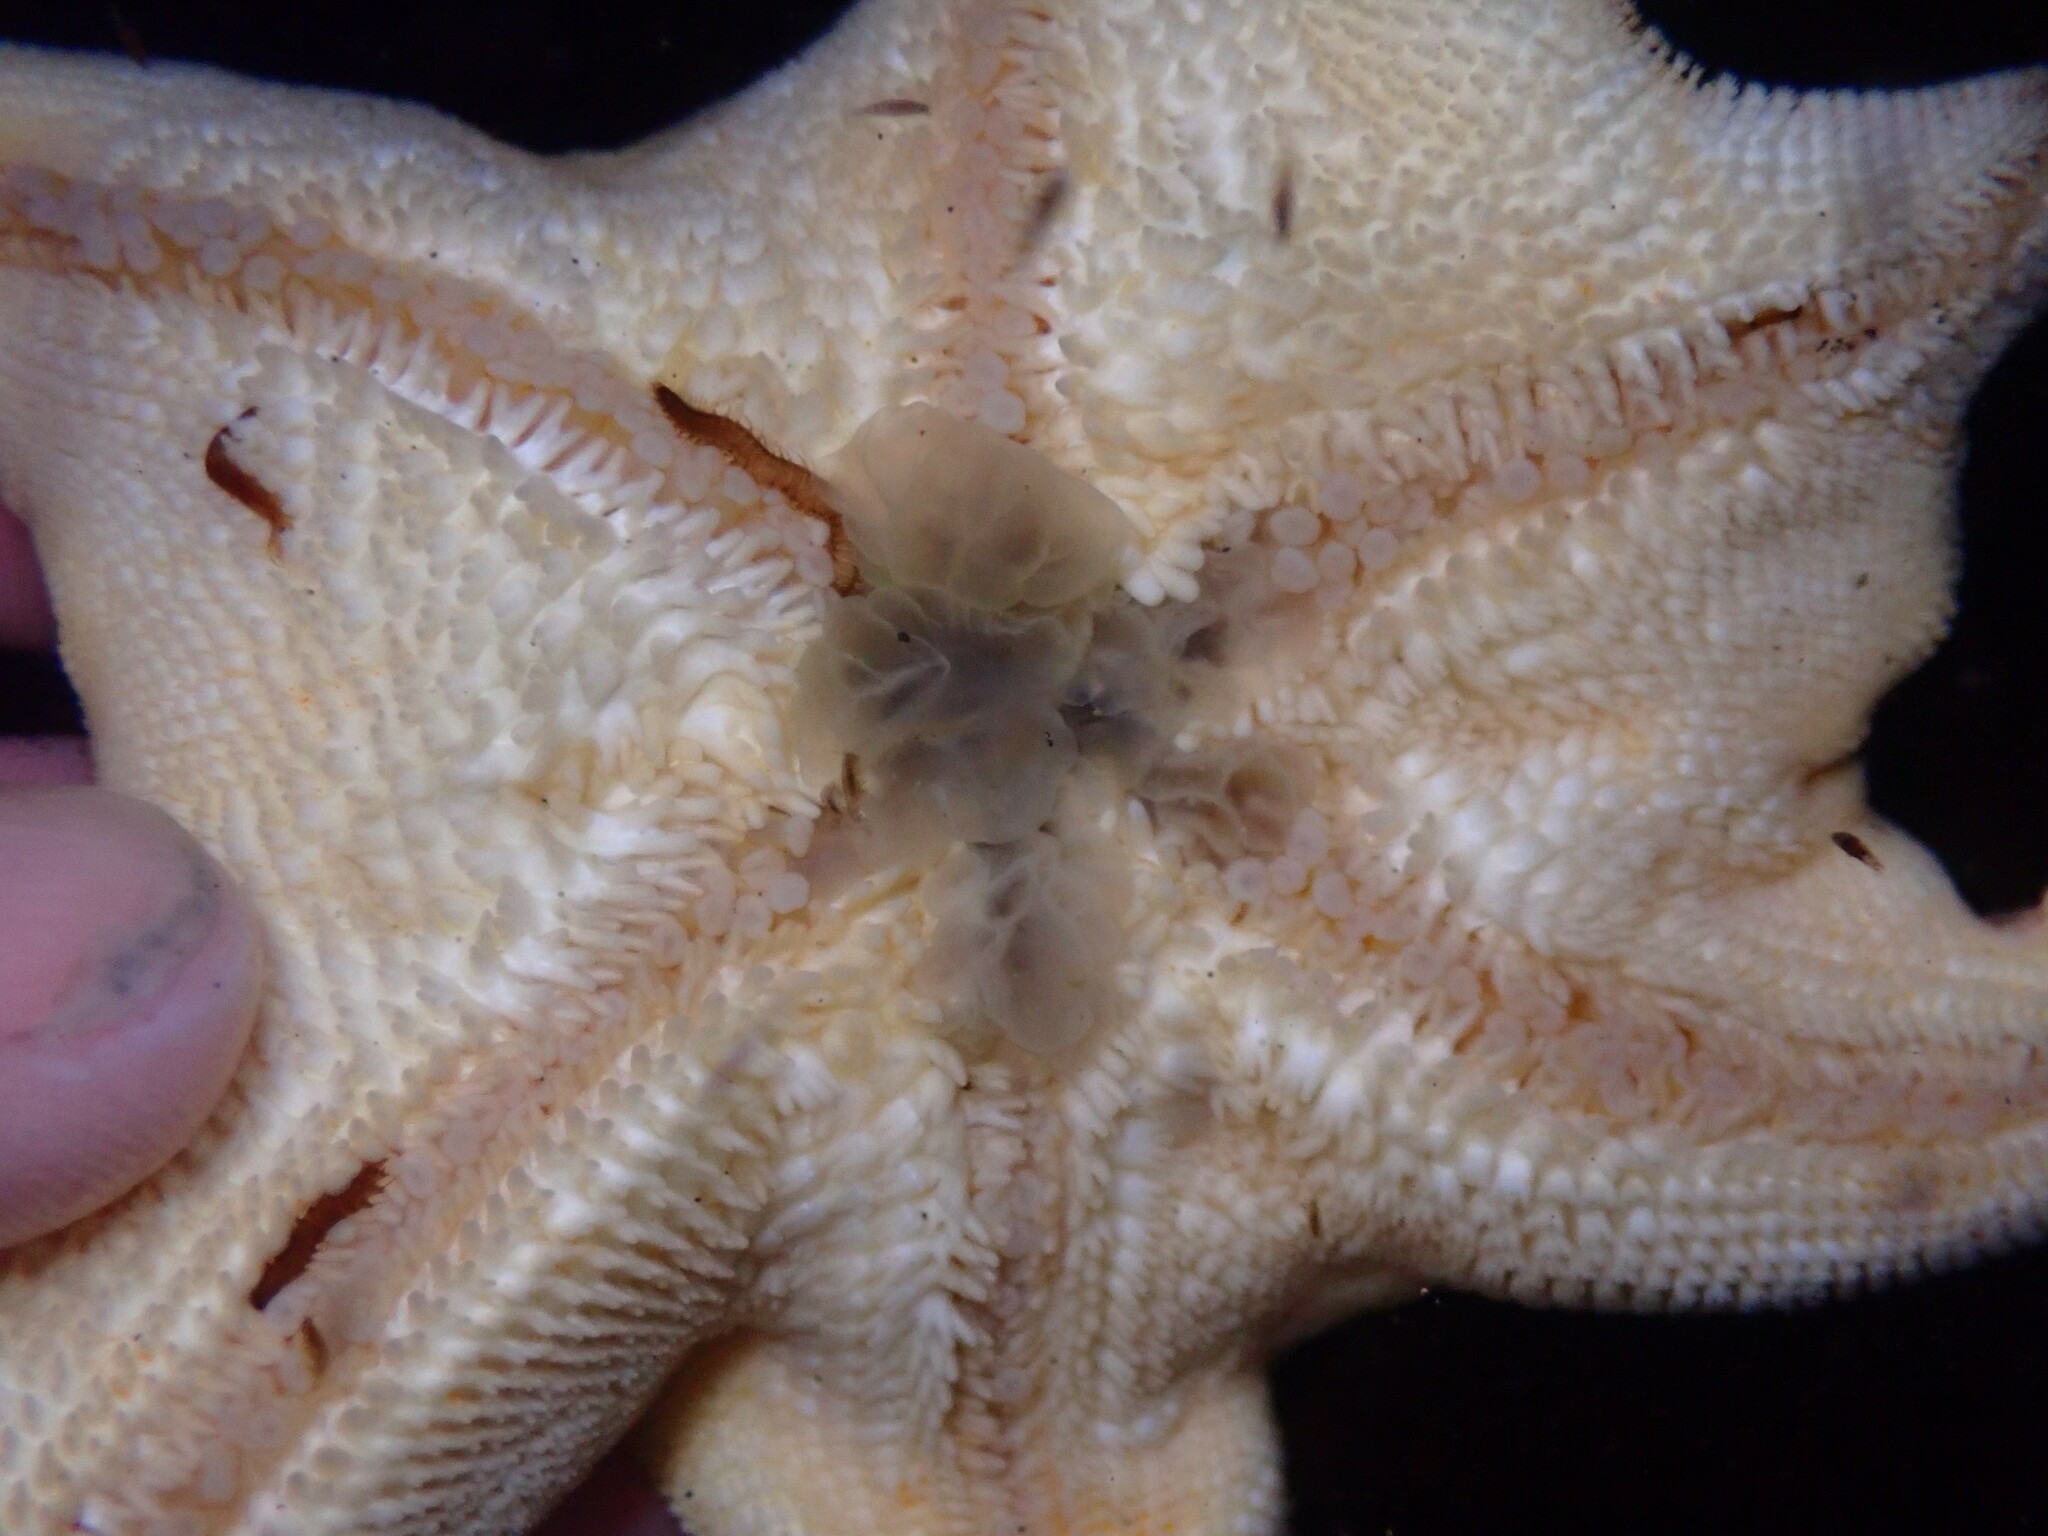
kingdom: Animalia
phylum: Annelida
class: Polychaeta
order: Phyllodocida
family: Hesionidae
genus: Oxydromus
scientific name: Oxydromus pugettensis
